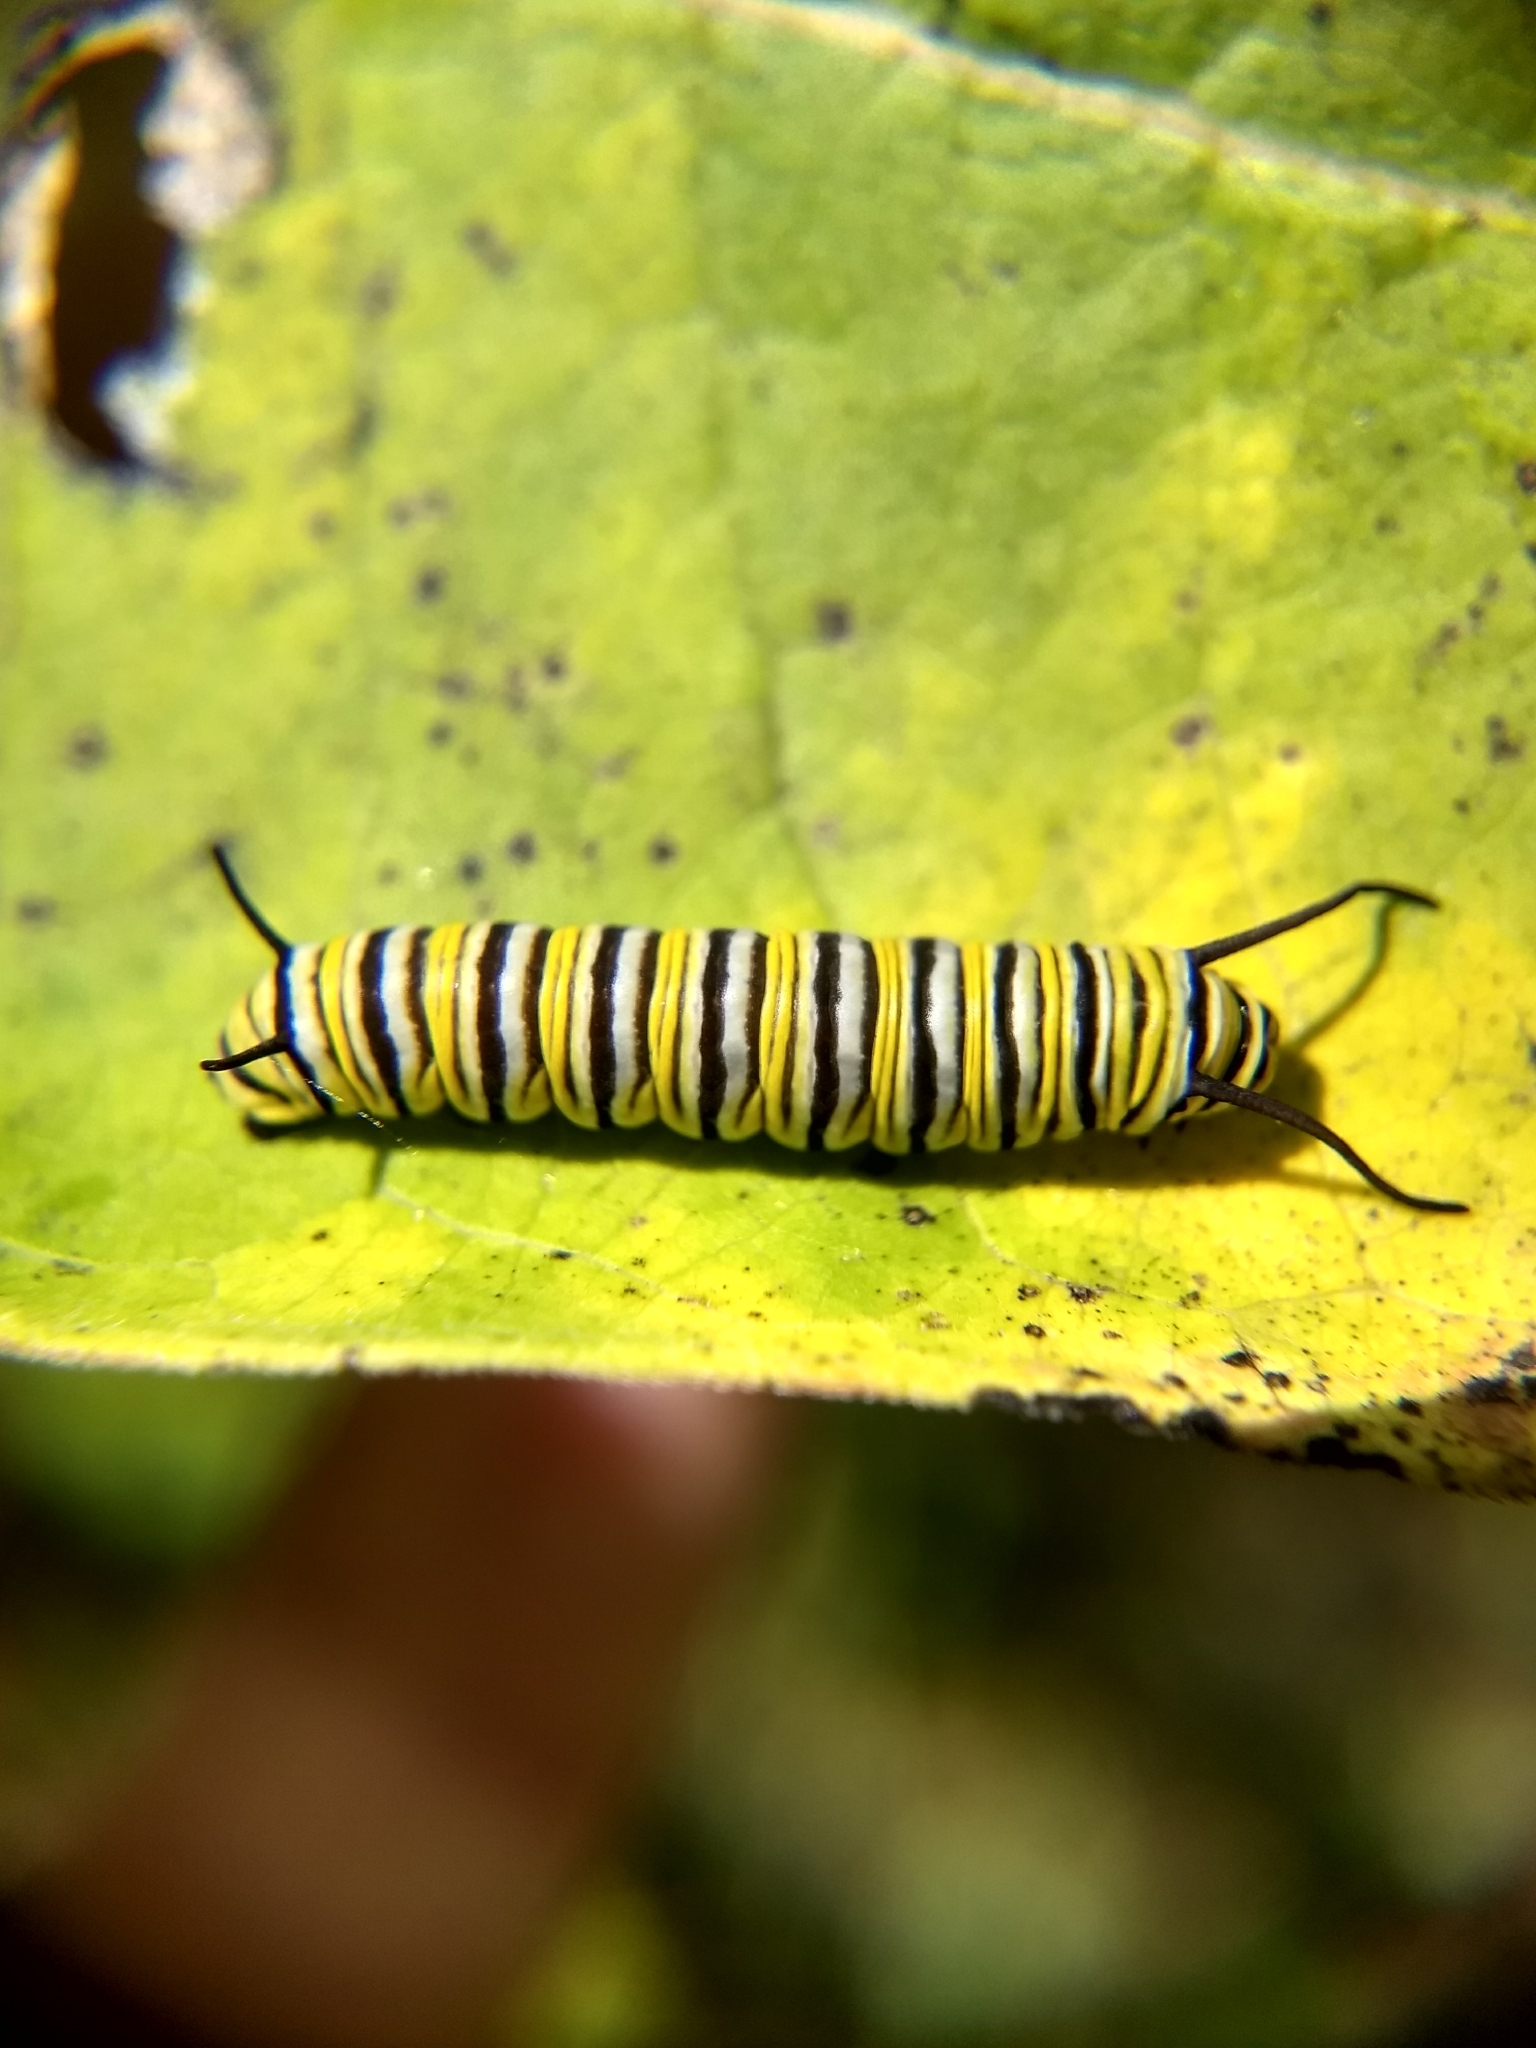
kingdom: Animalia
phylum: Arthropoda
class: Insecta
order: Lepidoptera
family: Nymphalidae
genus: Danaus
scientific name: Danaus plexippus
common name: Monarch
